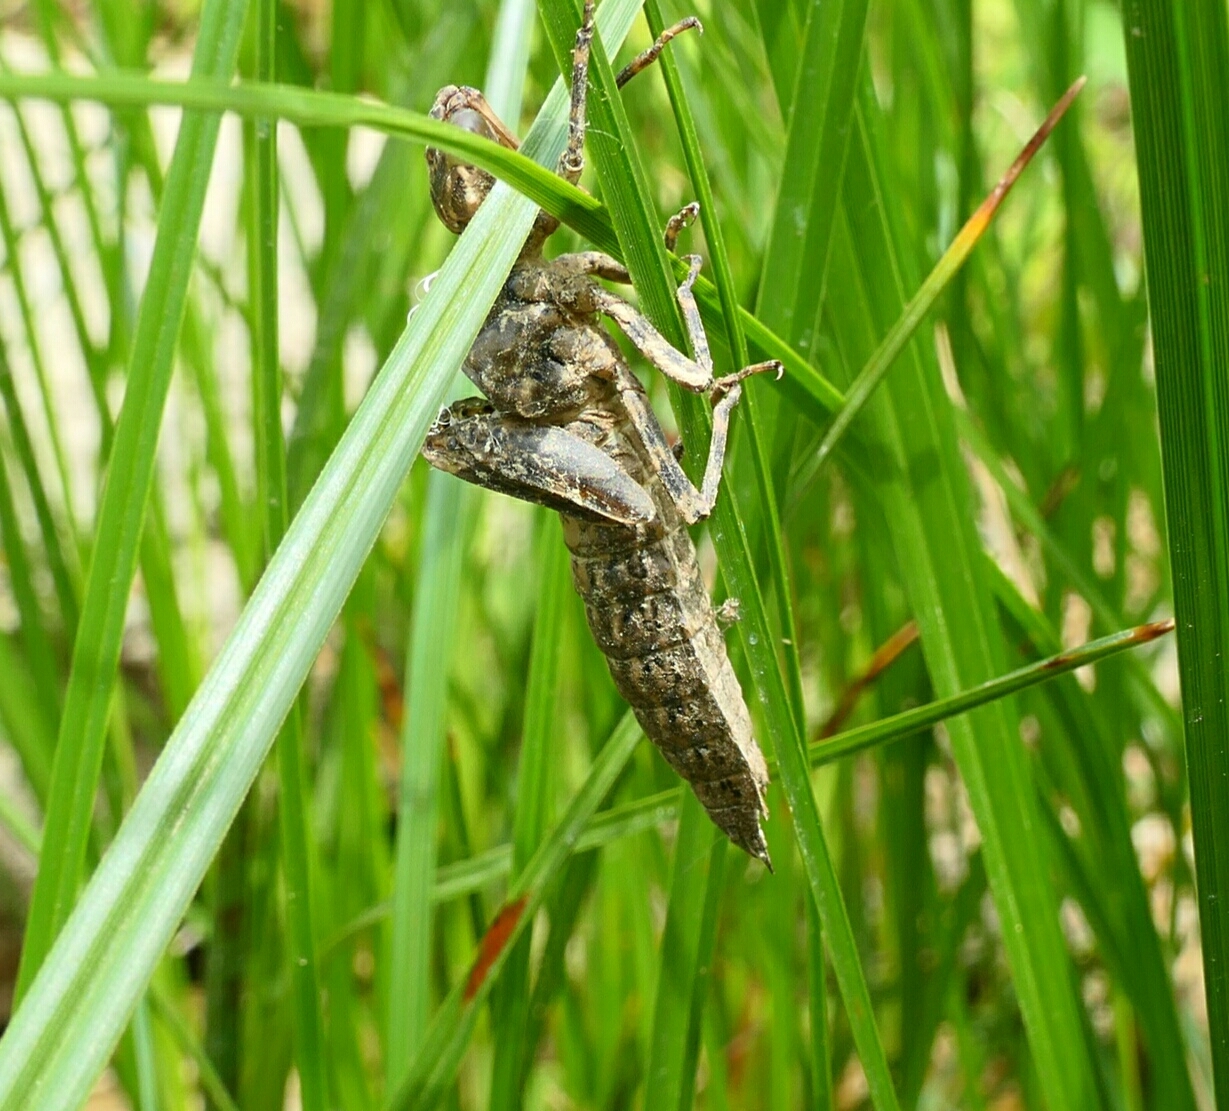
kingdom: Animalia
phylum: Arthropoda
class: Insecta
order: Odonata
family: Aeshnidae
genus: Boyeria
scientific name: Boyeria irene
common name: Western spectre
